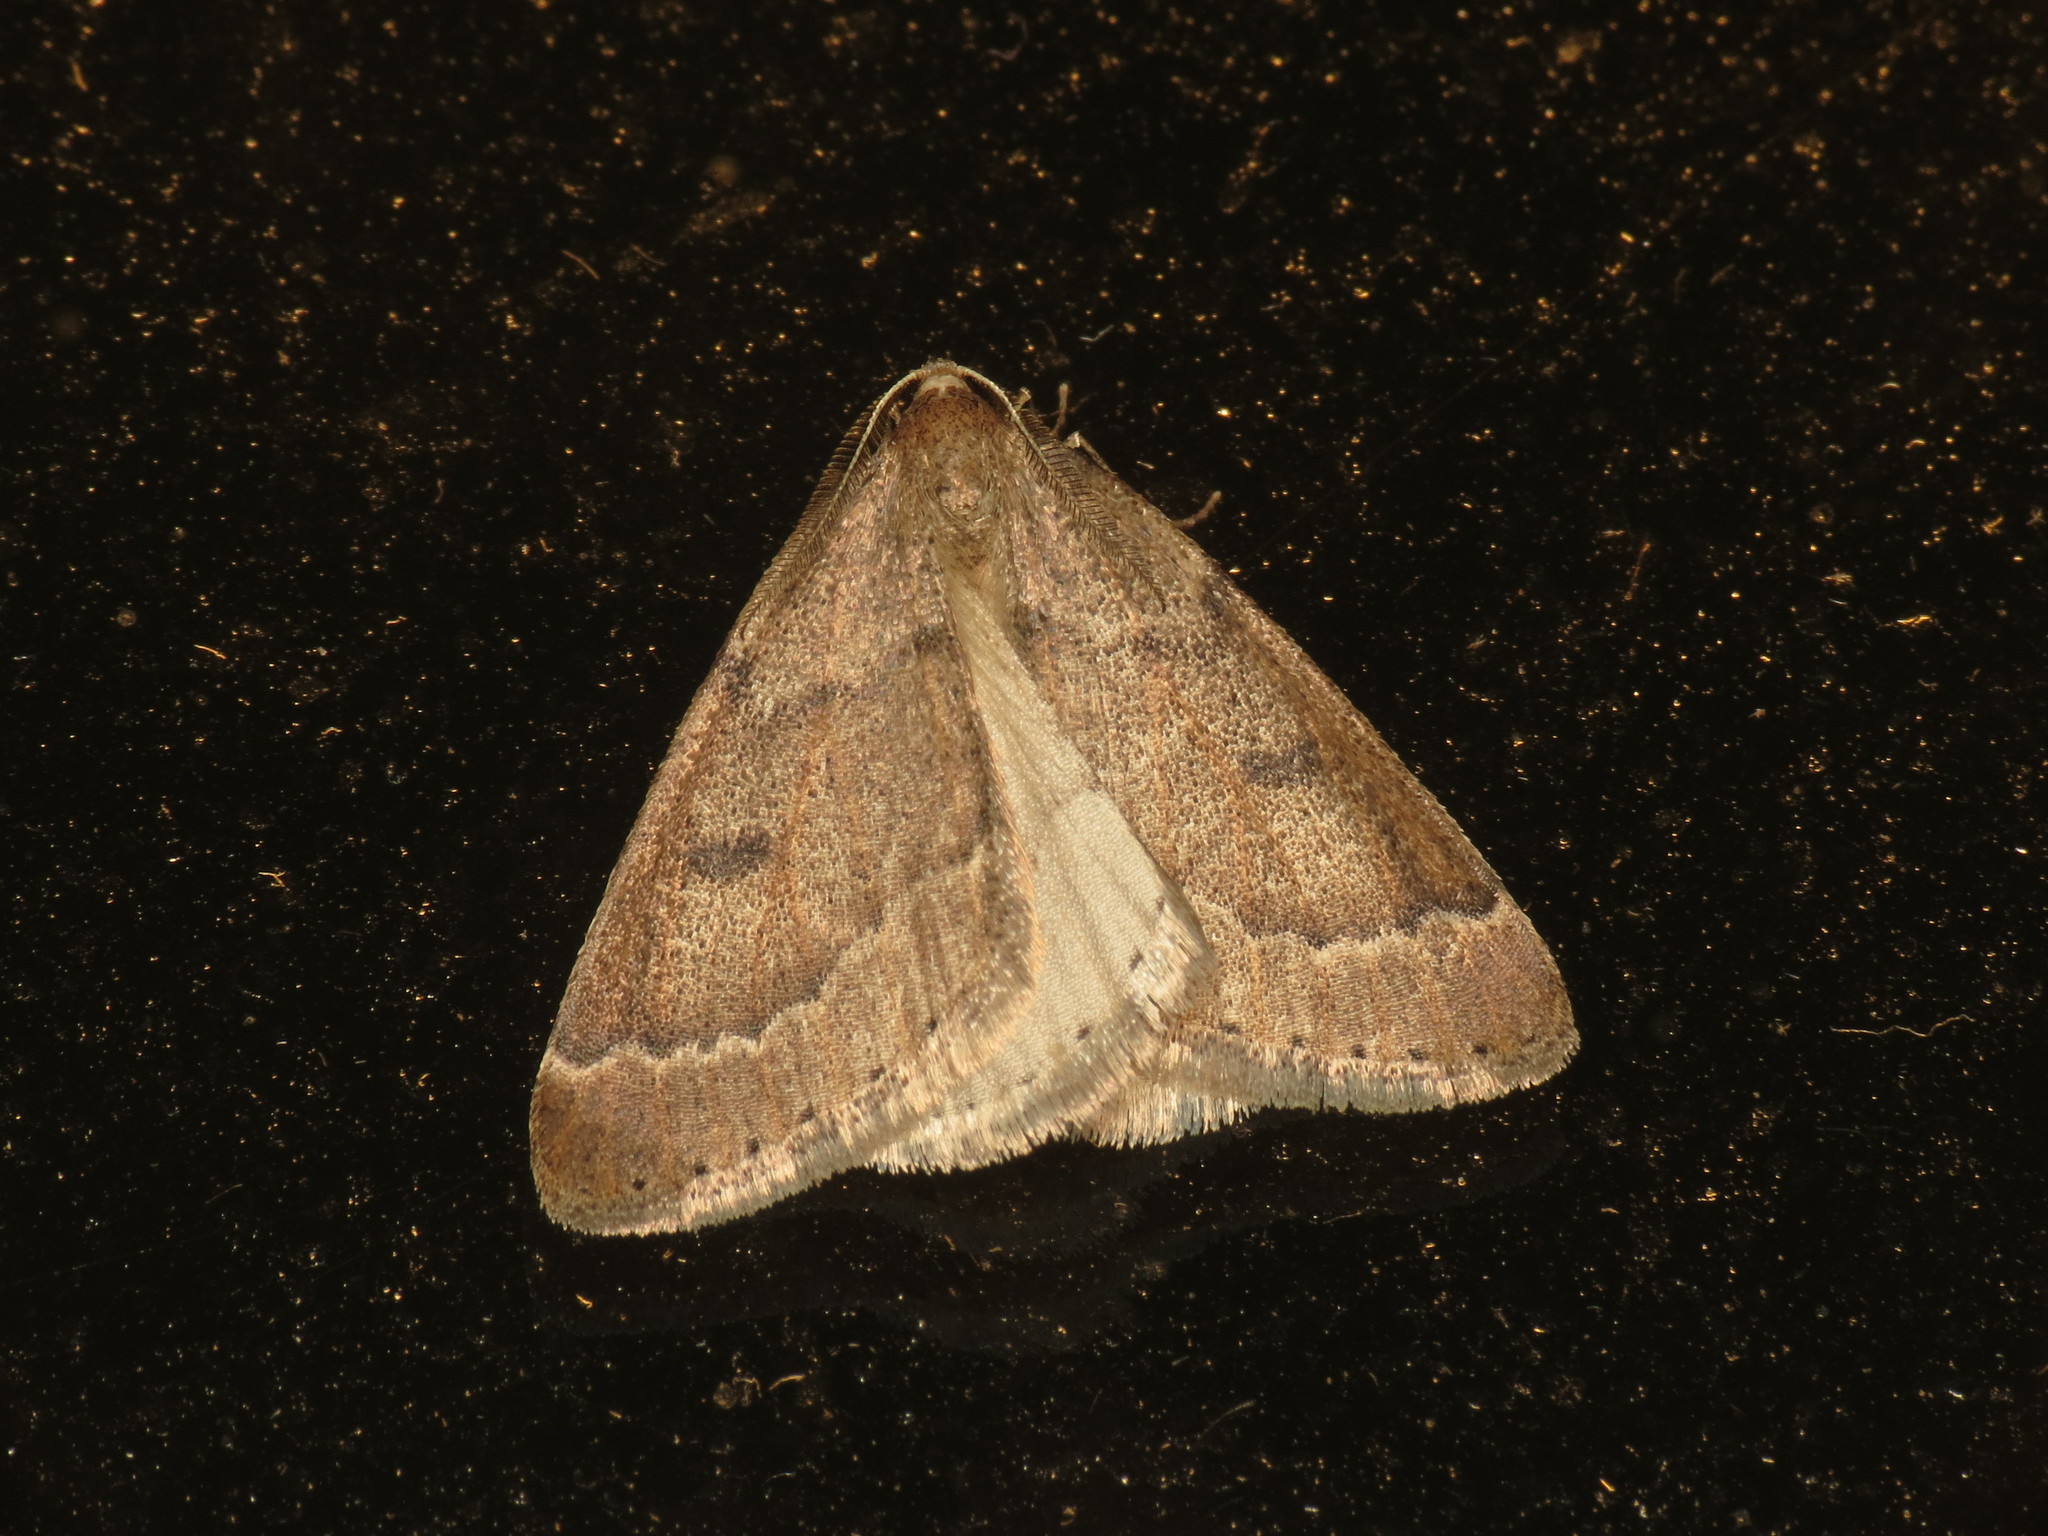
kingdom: Animalia
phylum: Arthropoda
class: Insecta
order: Lepidoptera
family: Geometridae
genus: Theria
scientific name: Theria rupicapraria
